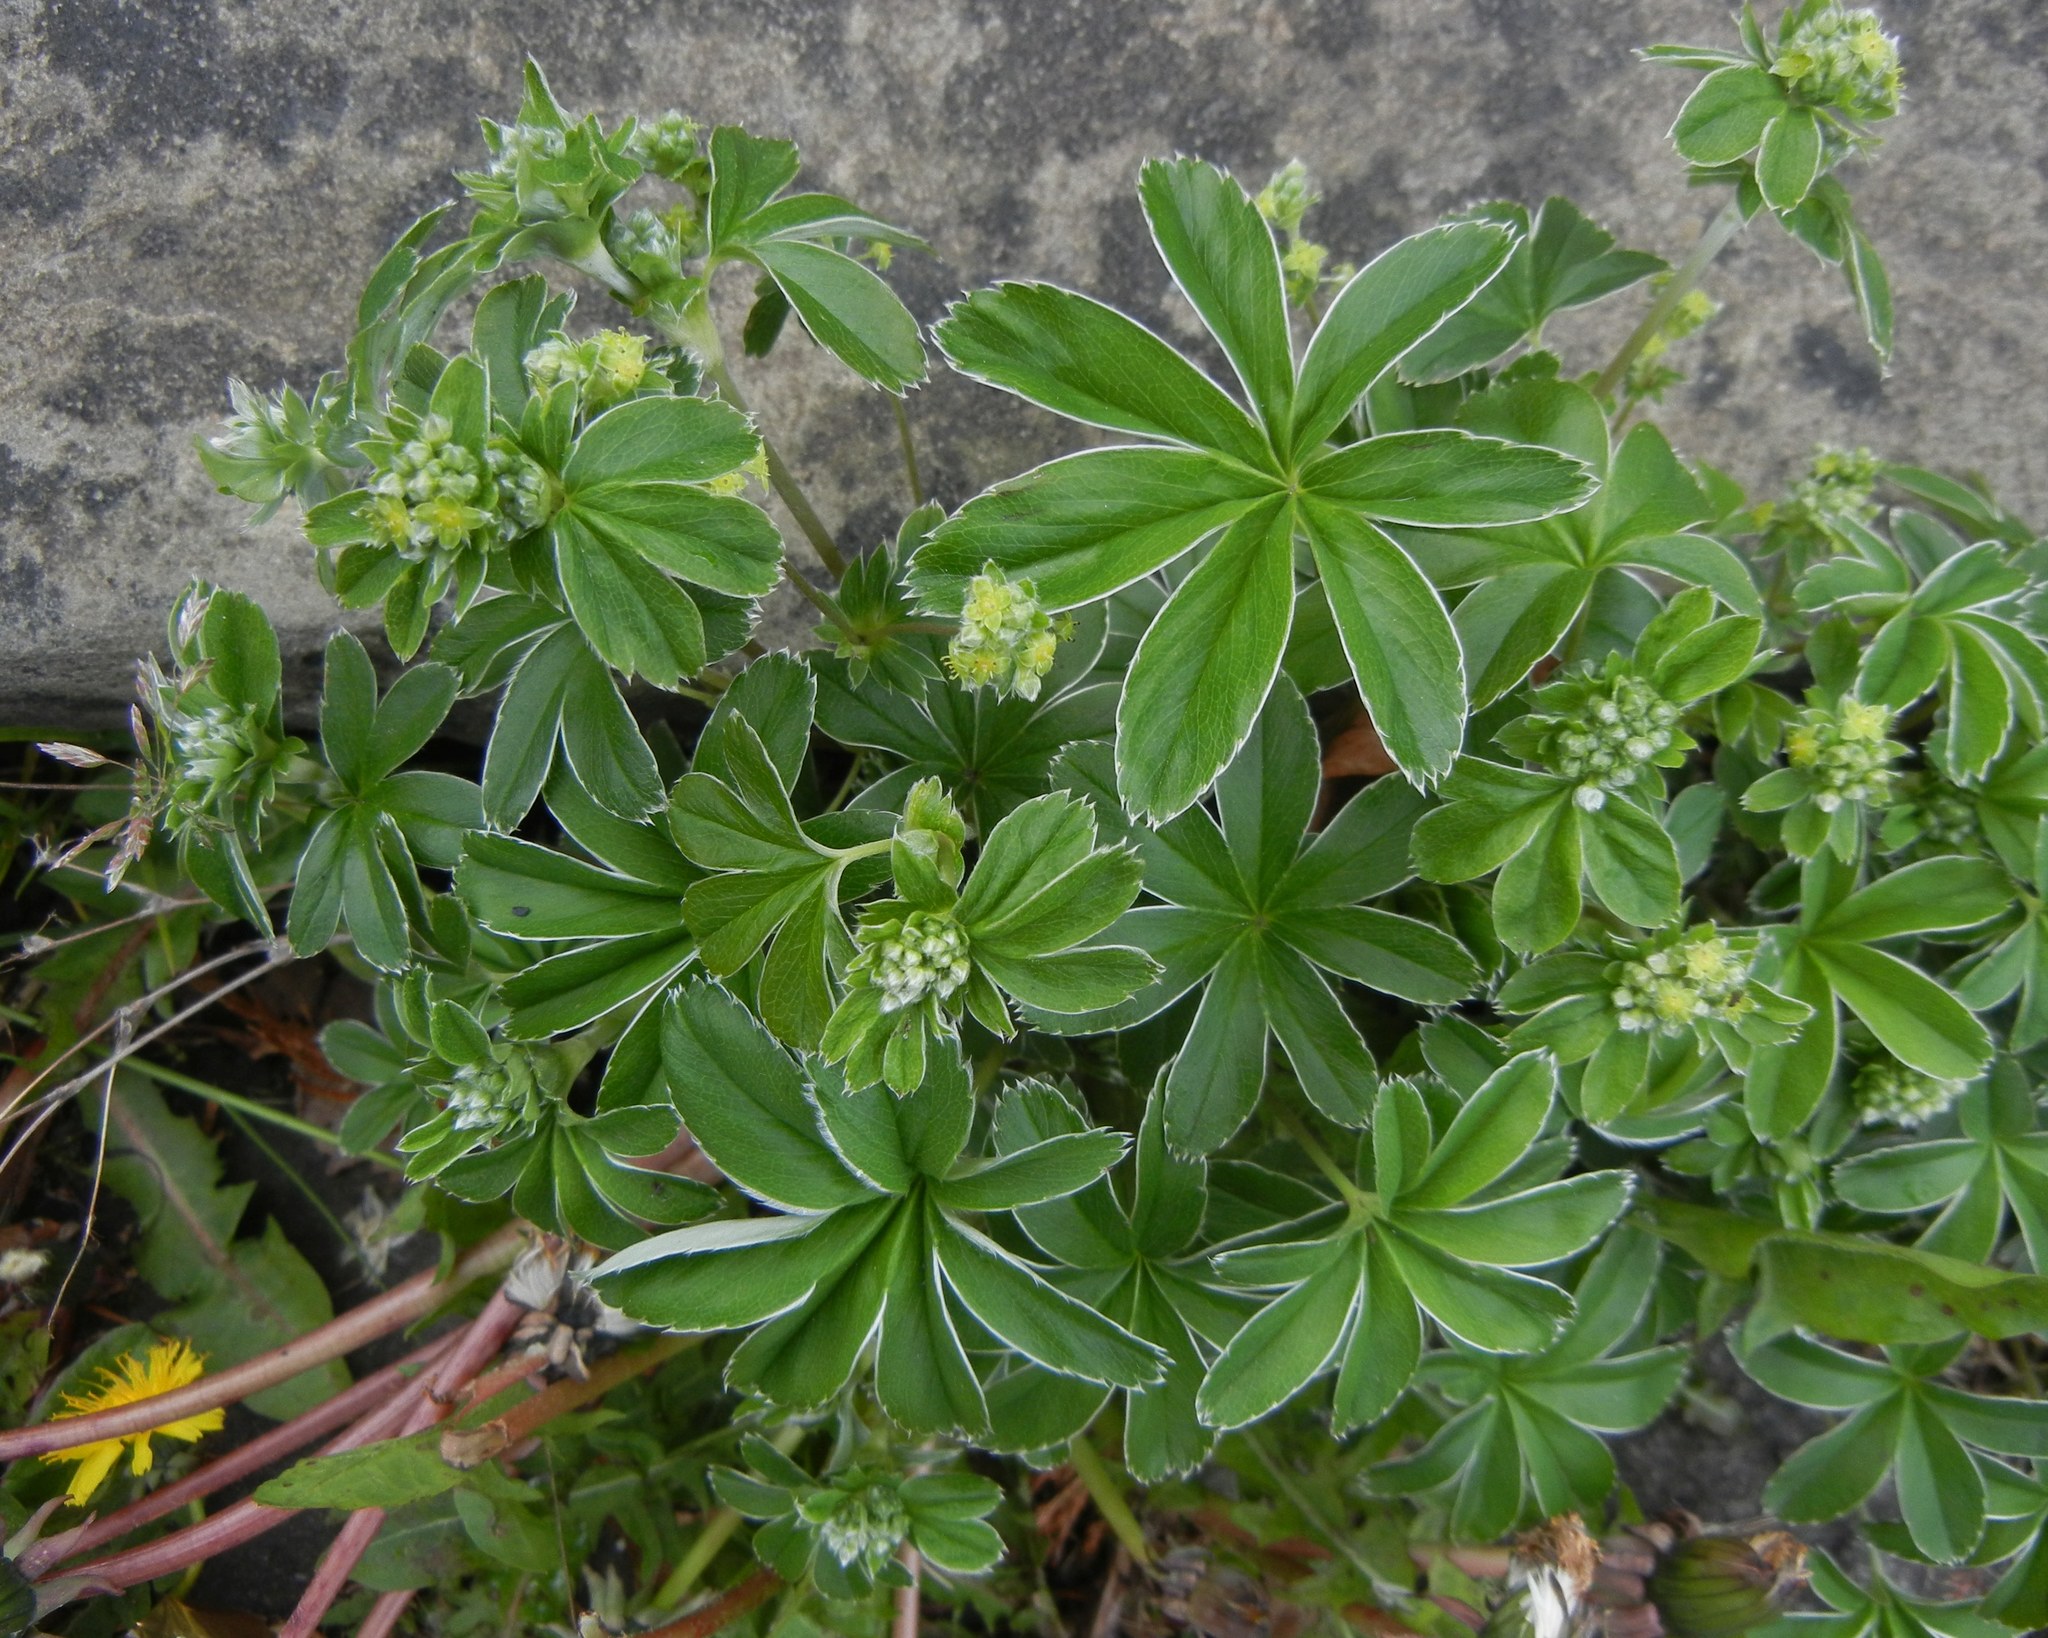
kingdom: Plantae
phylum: Tracheophyta
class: Magnoliopsida
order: Rosales
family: Rosaceae
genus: Alchemilla
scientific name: Alchemilla conjuncta
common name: Silver lady's-mantle
